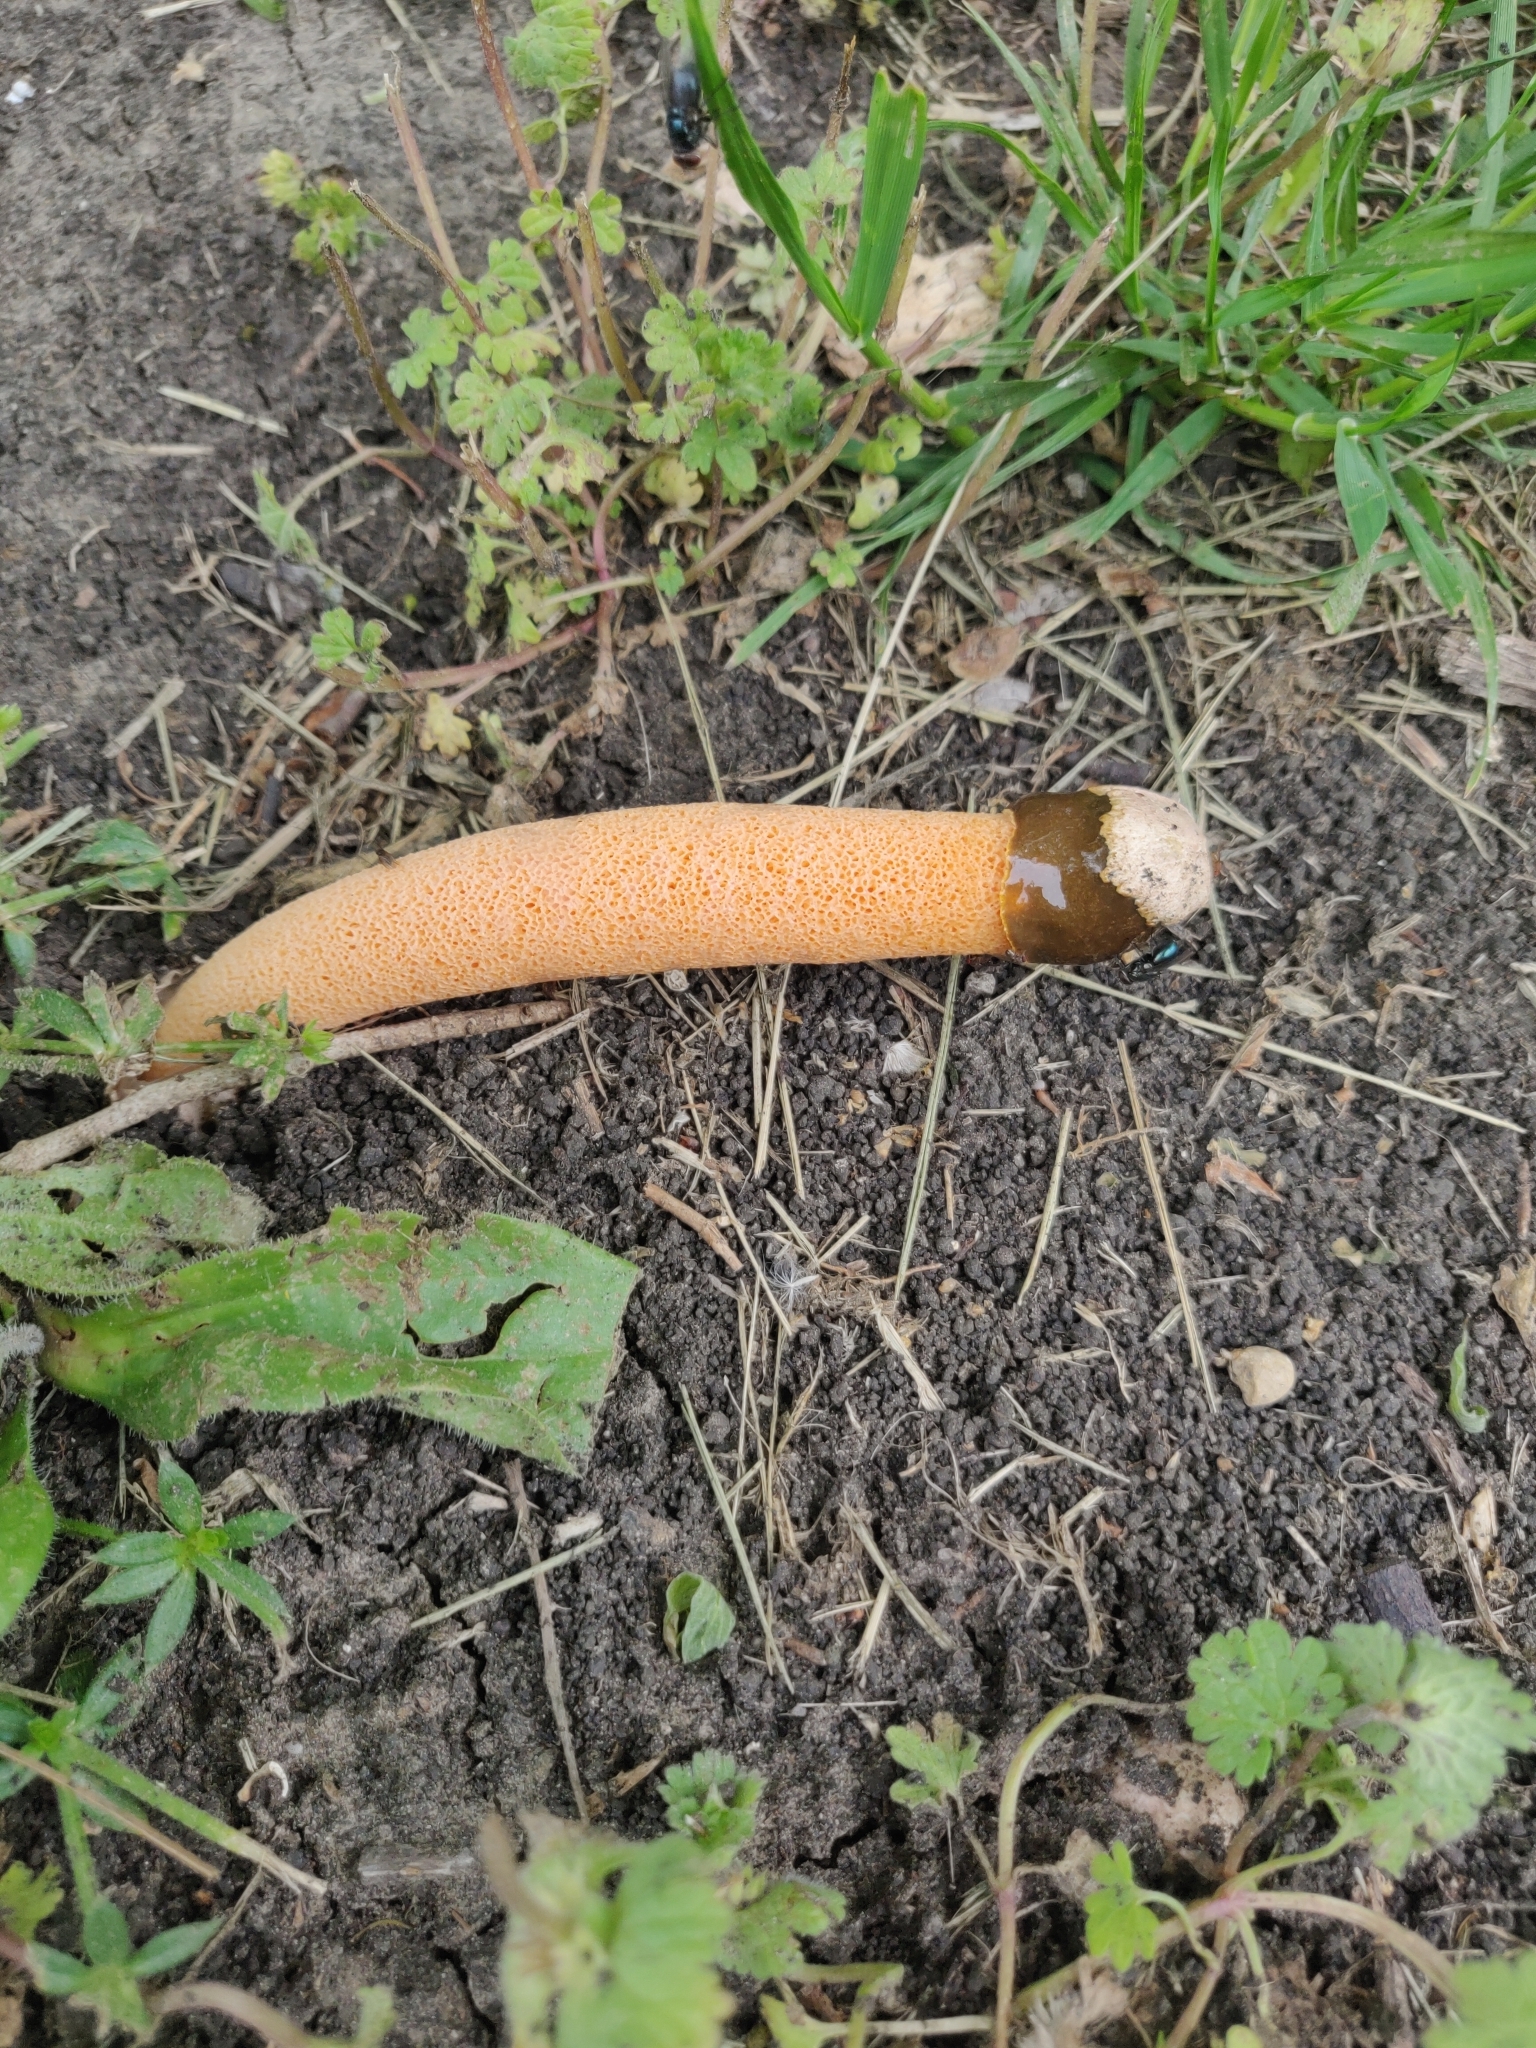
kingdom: Fungi
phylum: Basidiomycota
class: Agaricomycetes
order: Phallales
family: Phallaceae
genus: Phallus
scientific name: Phallus rubicundus
